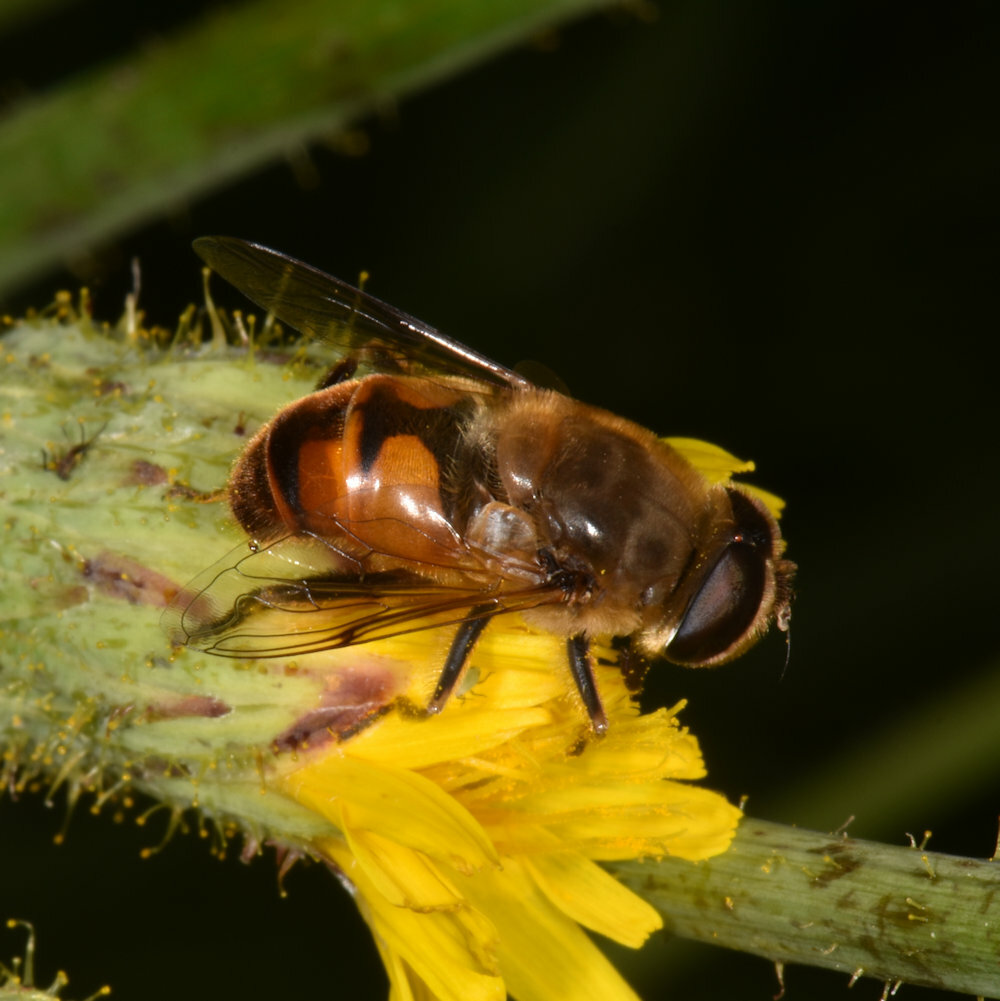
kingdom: Animalia
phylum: Arthropoda
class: Insecta
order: Diptera
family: Syrphidae
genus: Eristalis
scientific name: Eristalis tenax
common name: Drone fly
